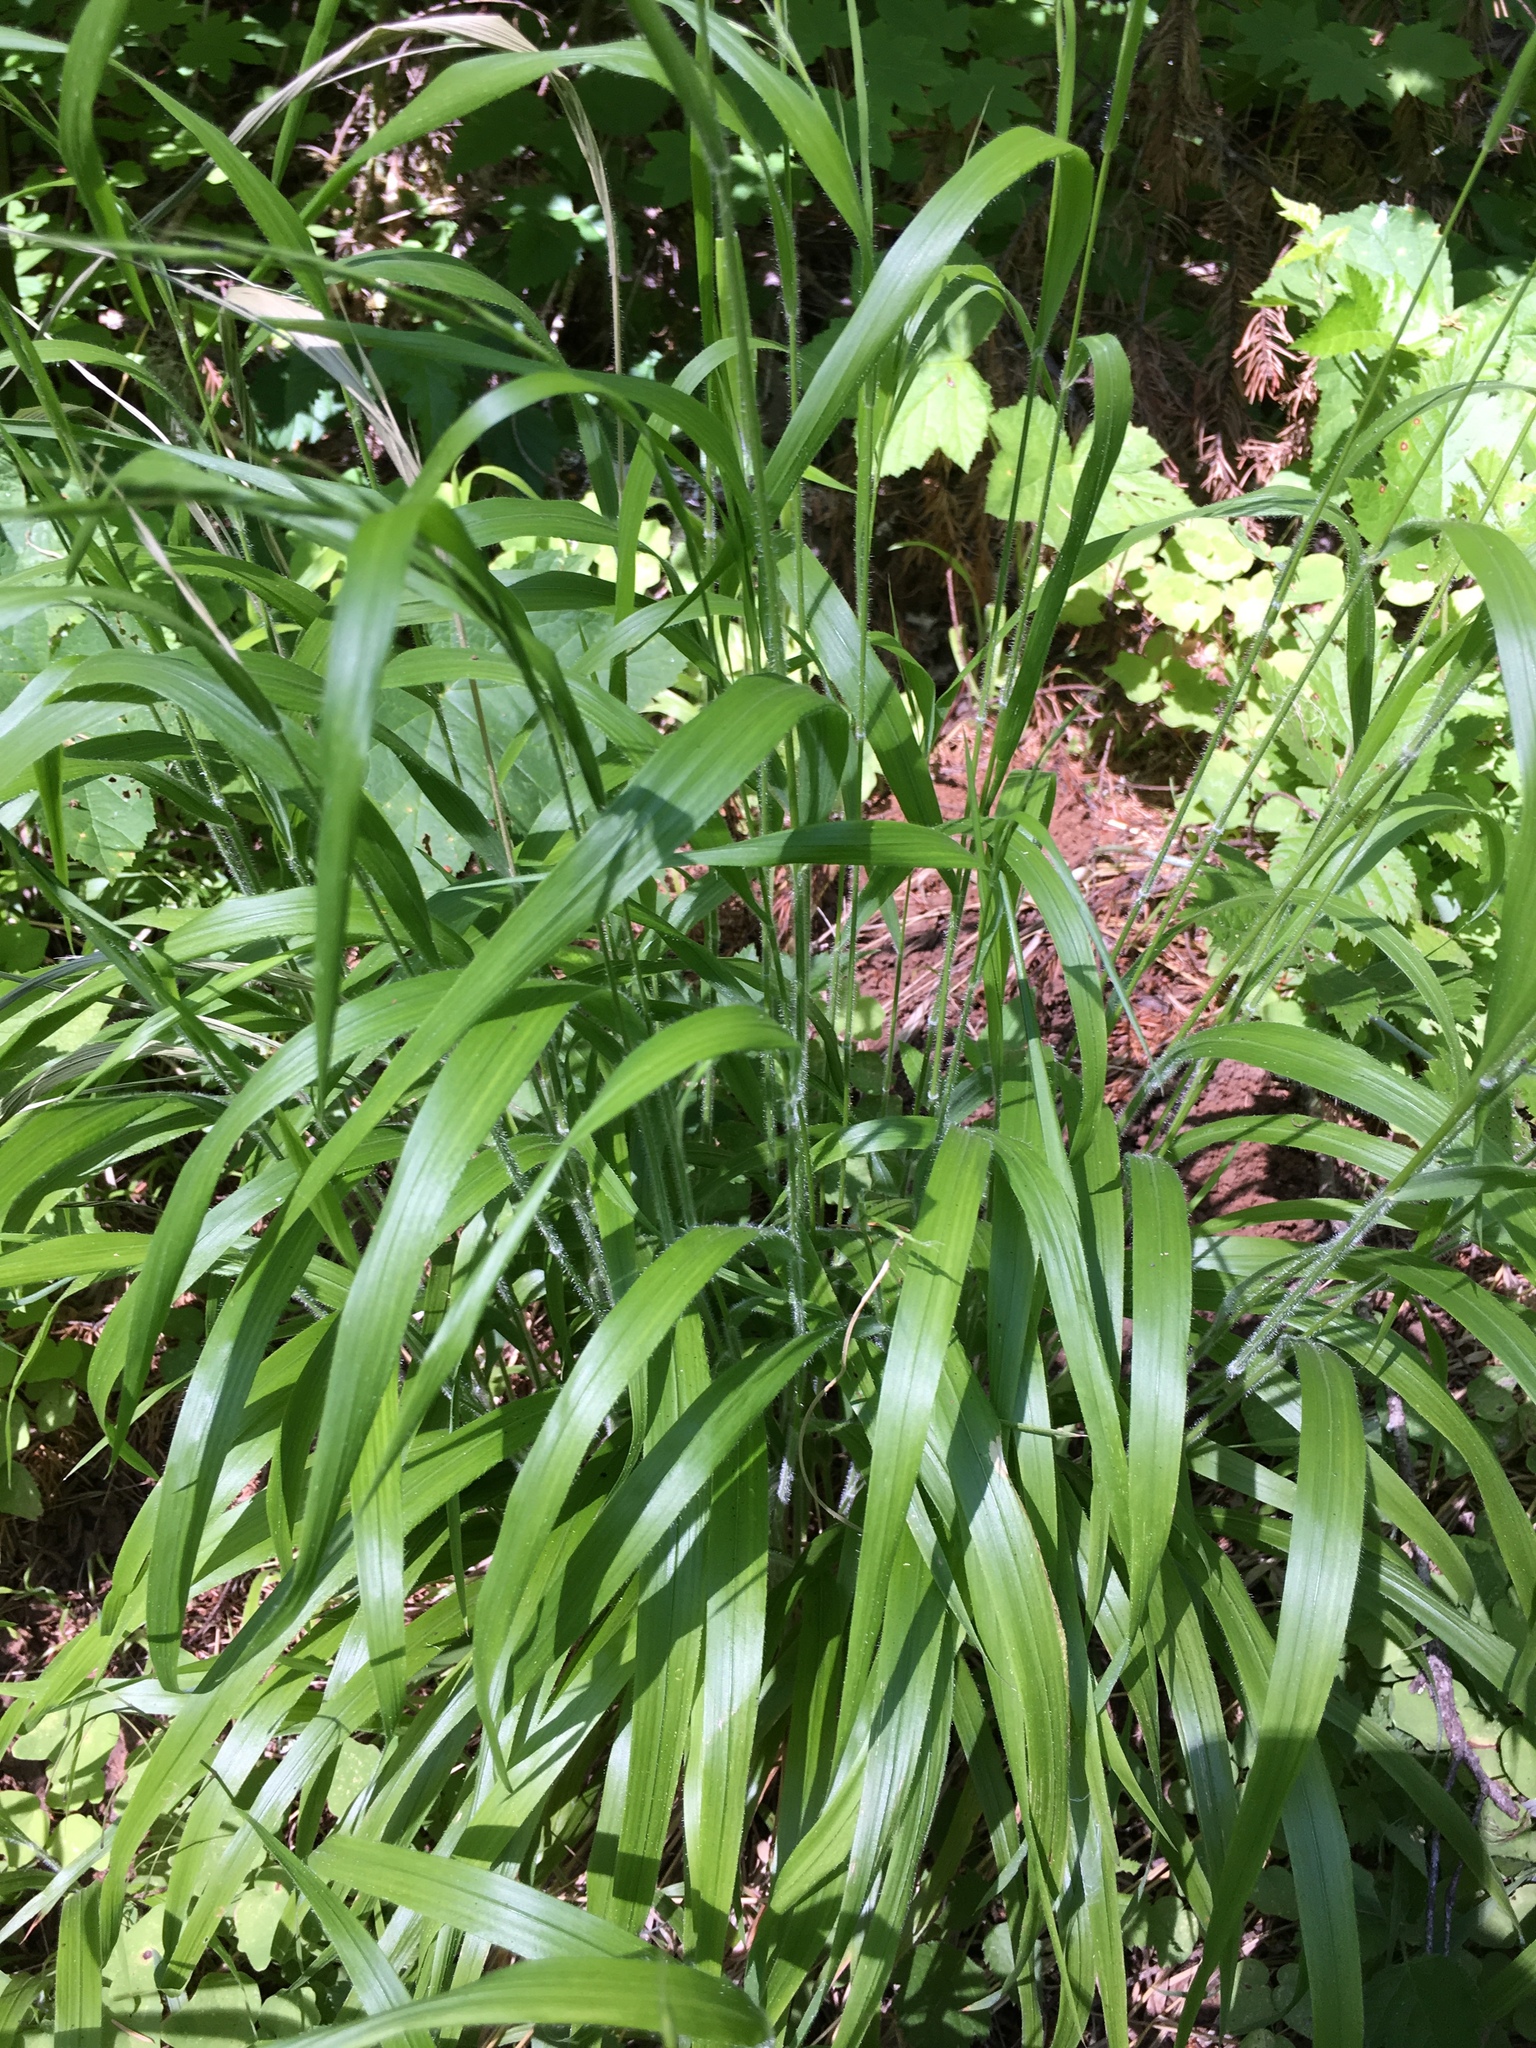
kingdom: Plantae
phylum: Tracheophyta
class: Liliopsida
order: Poales
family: Poaceae
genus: Brachypodium
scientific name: Brachypodium sylvaticum
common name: False-brome
